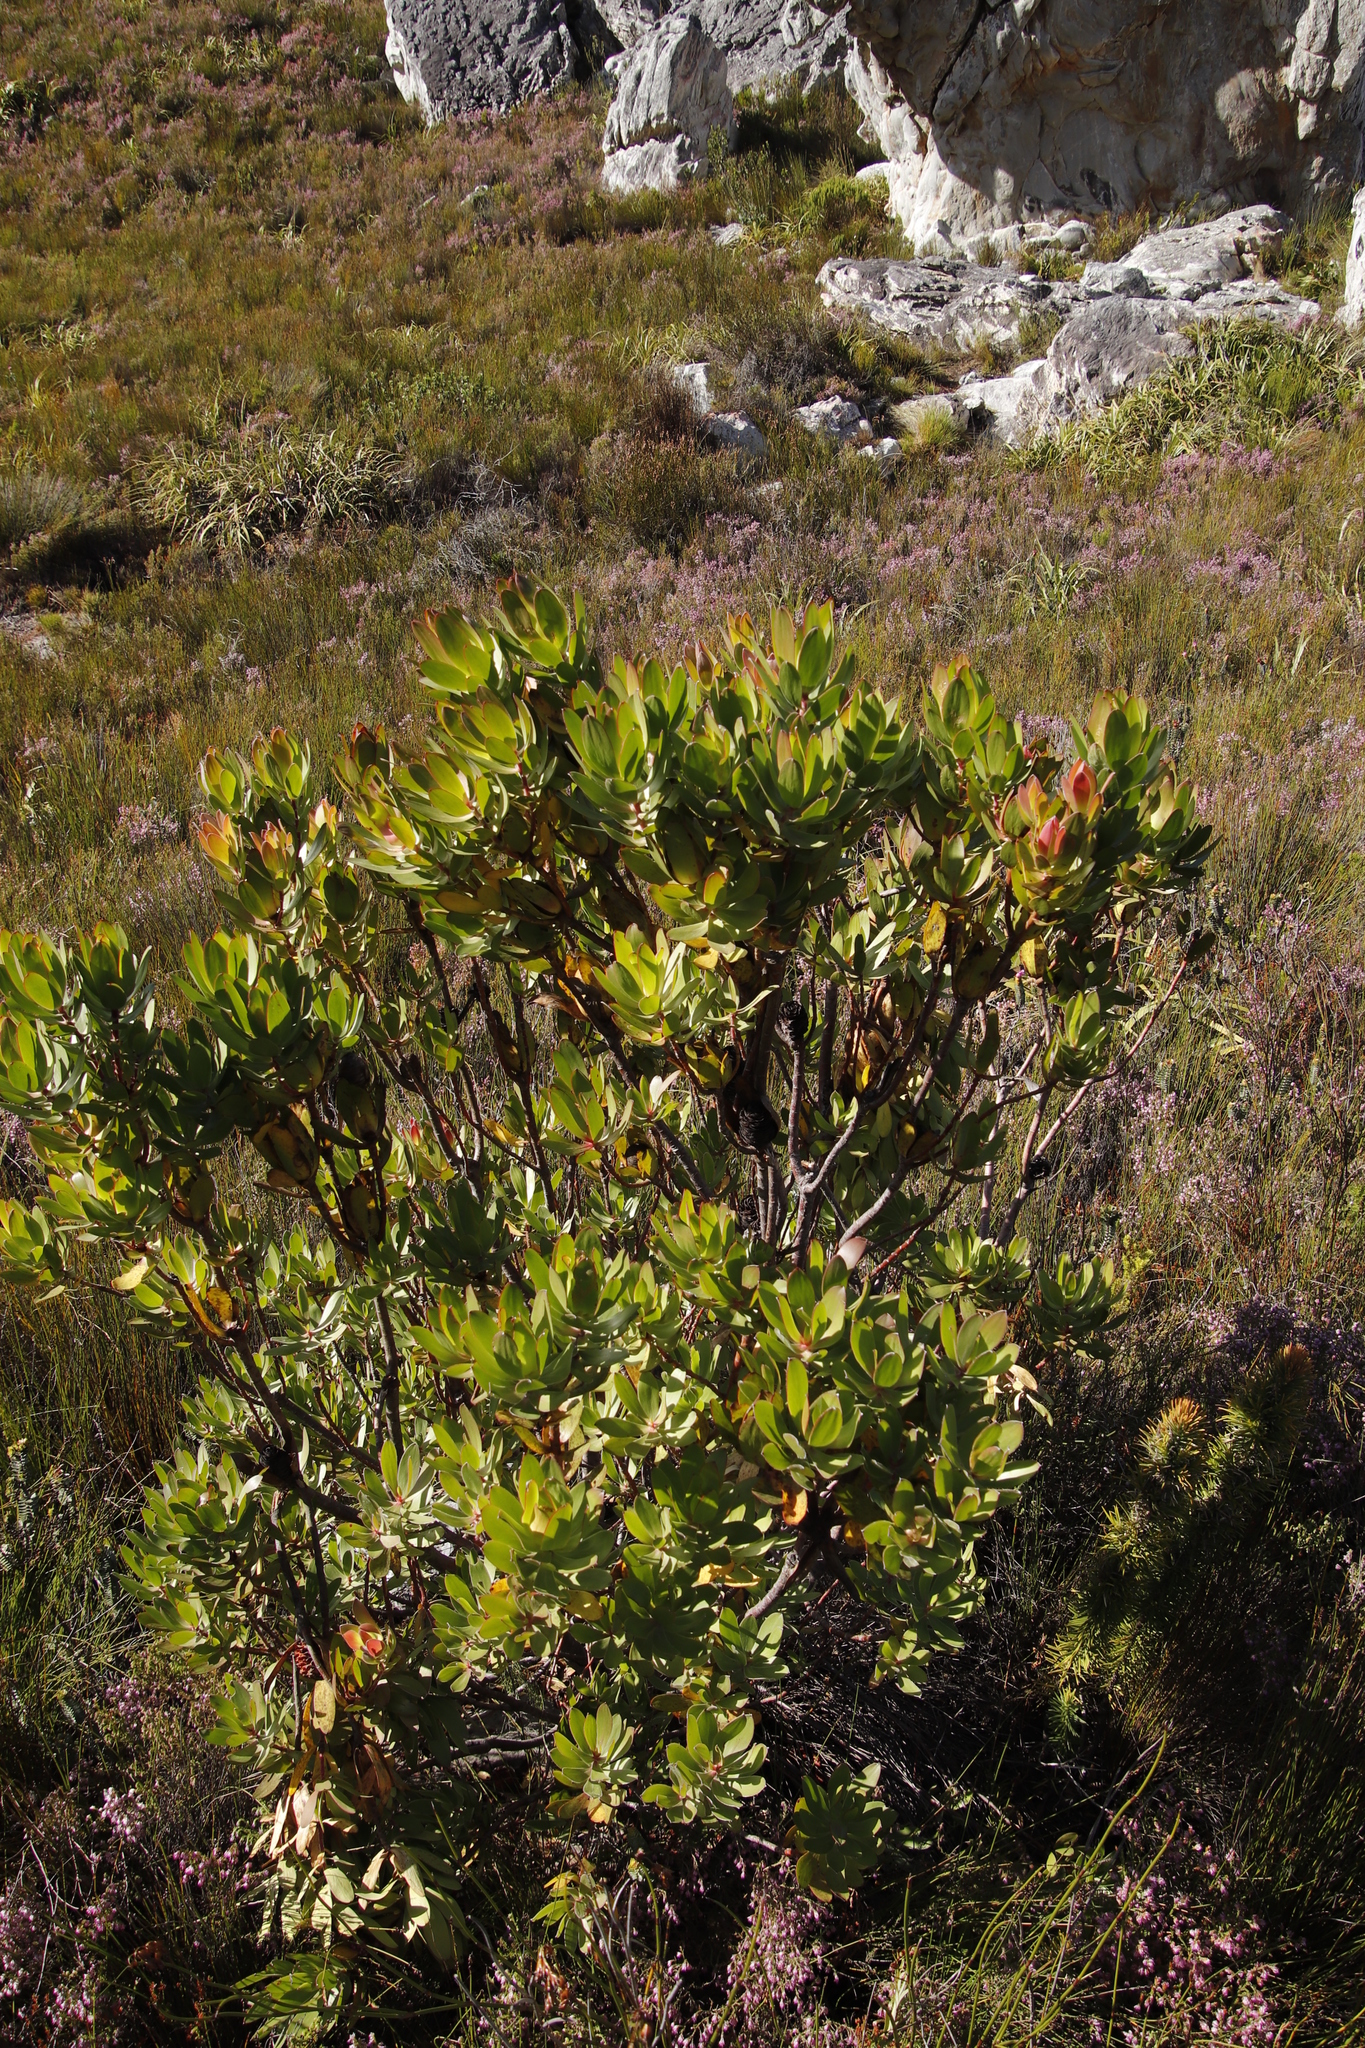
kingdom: Plantae
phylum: Tracheophyta
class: Magnoliopsida
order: Proteales
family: Proteaceae
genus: Leucadendron
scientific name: Leucadendron gandogeri
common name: Broad-leaf conebush
